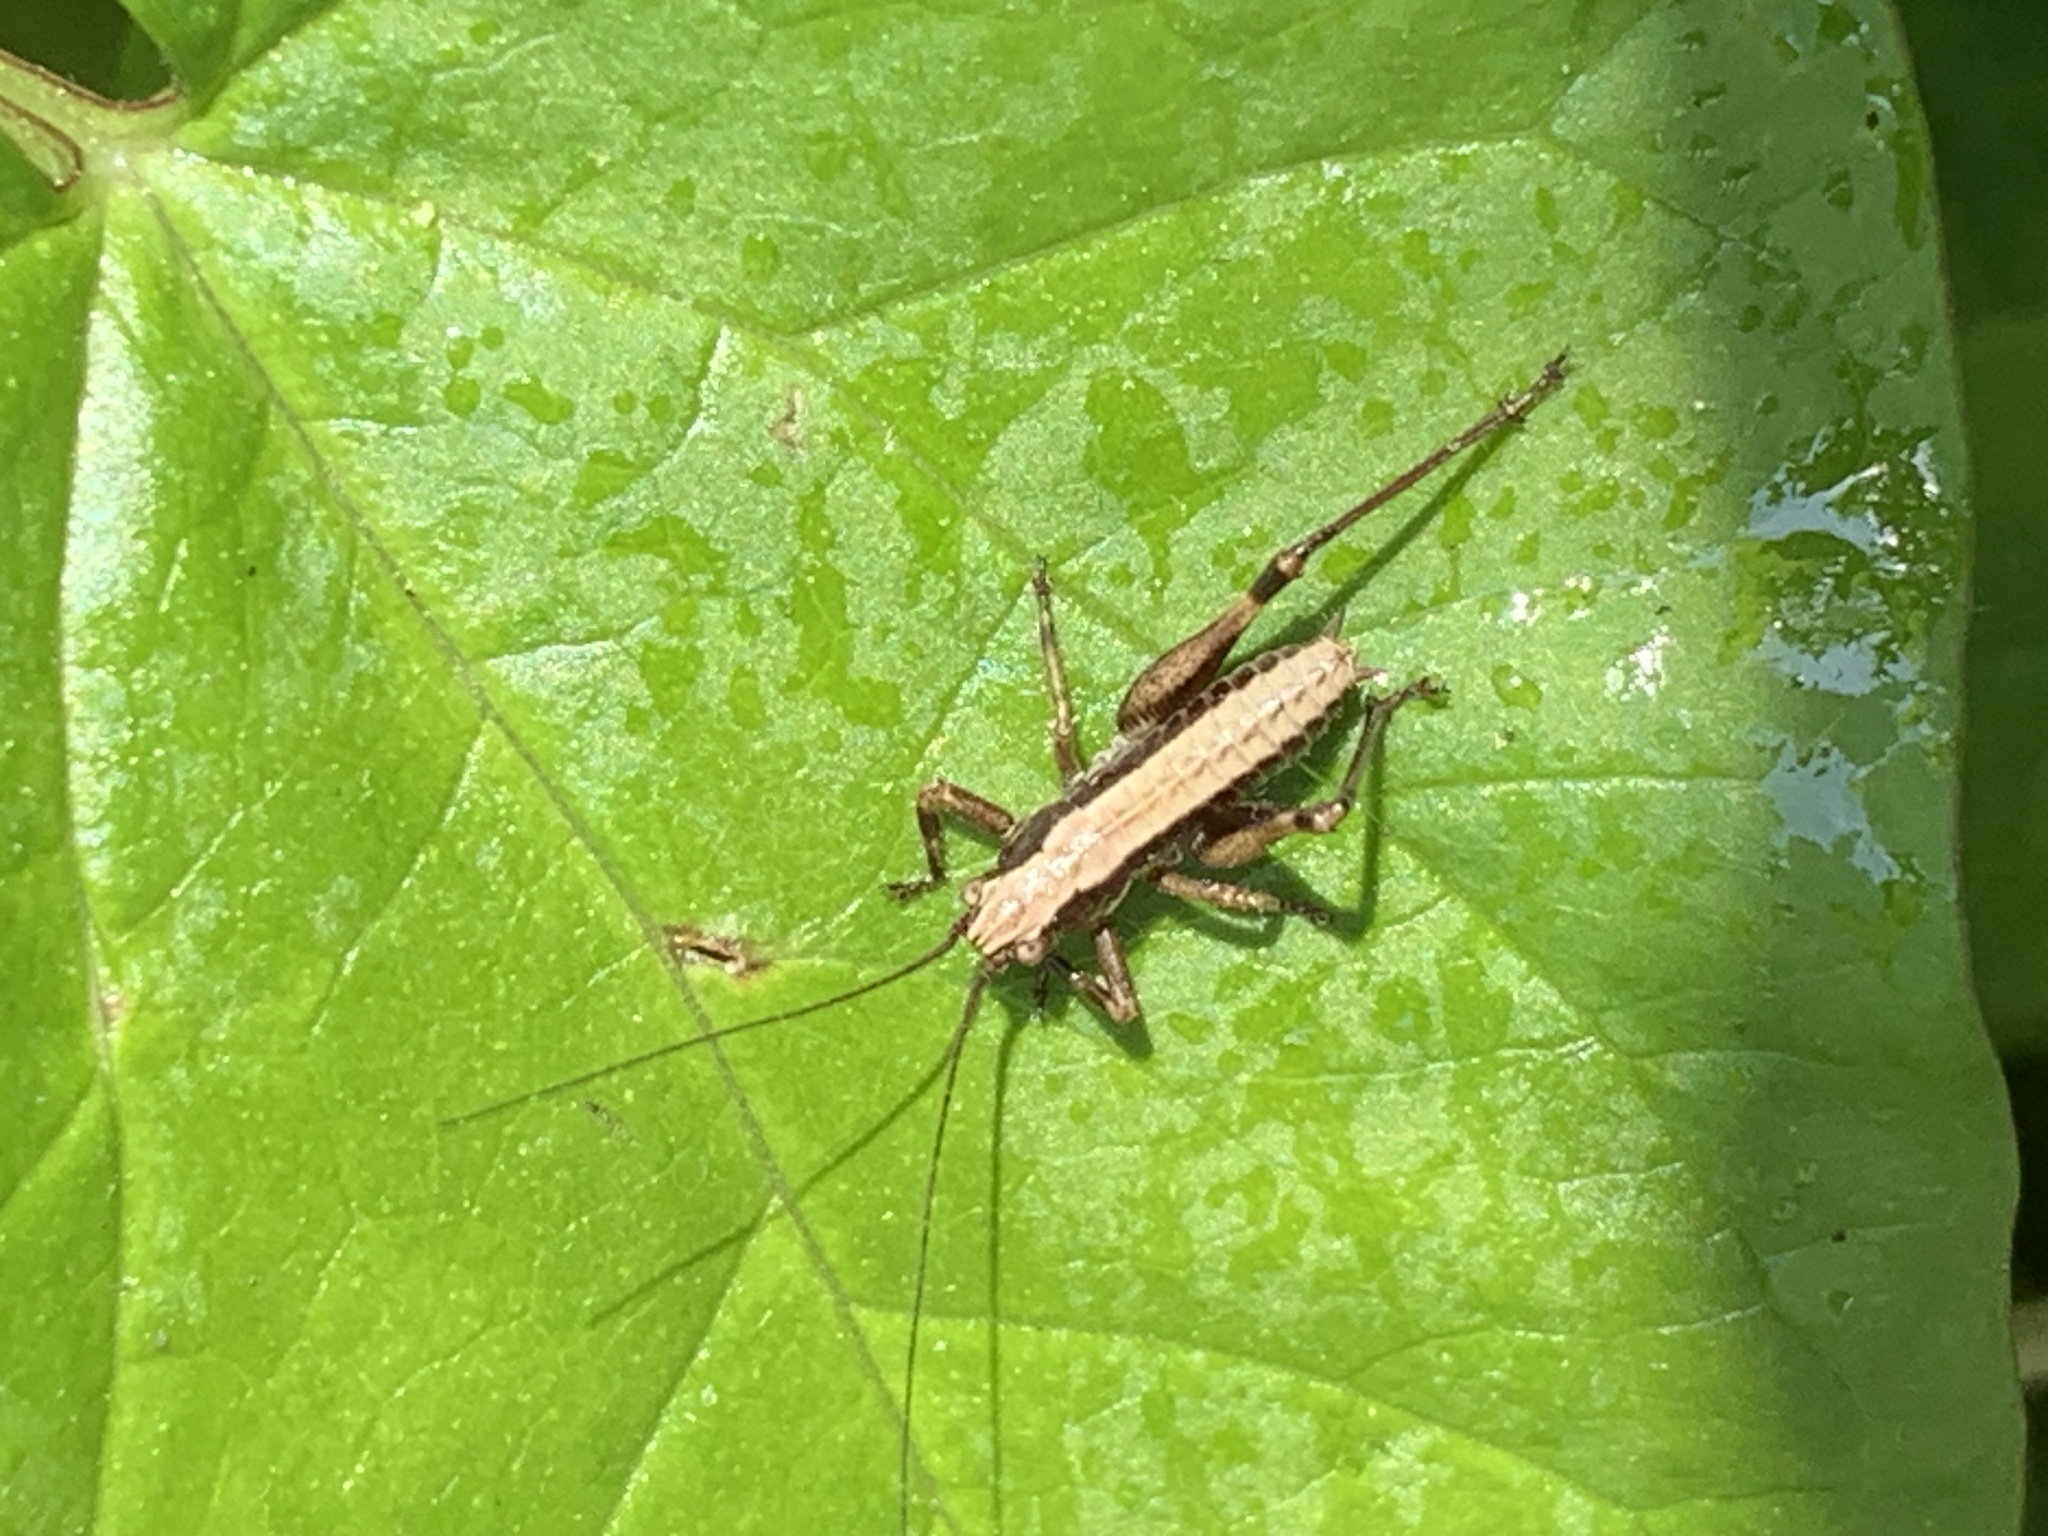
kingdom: Animalia
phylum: Arthropoda
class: Insecta
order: Orthoptera
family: Tettigoniidae
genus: Pholidoptera
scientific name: Pholidoptera griseoaptera
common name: Dark bush-cricket
